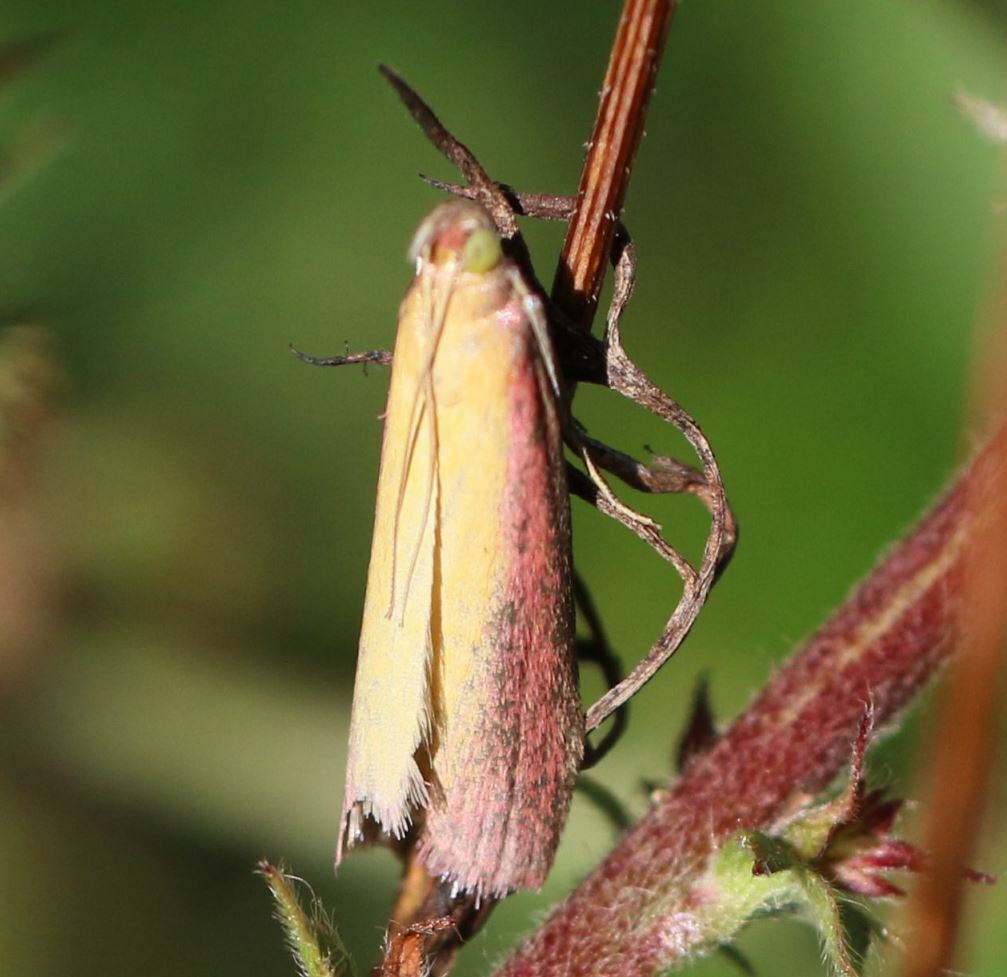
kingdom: Animalia
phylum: Arthropoda
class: Insecta
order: Lepidoptera
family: Pyralidae
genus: Oncocera
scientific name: Oncocera semirubella
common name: Rosy-striped knot-horn
